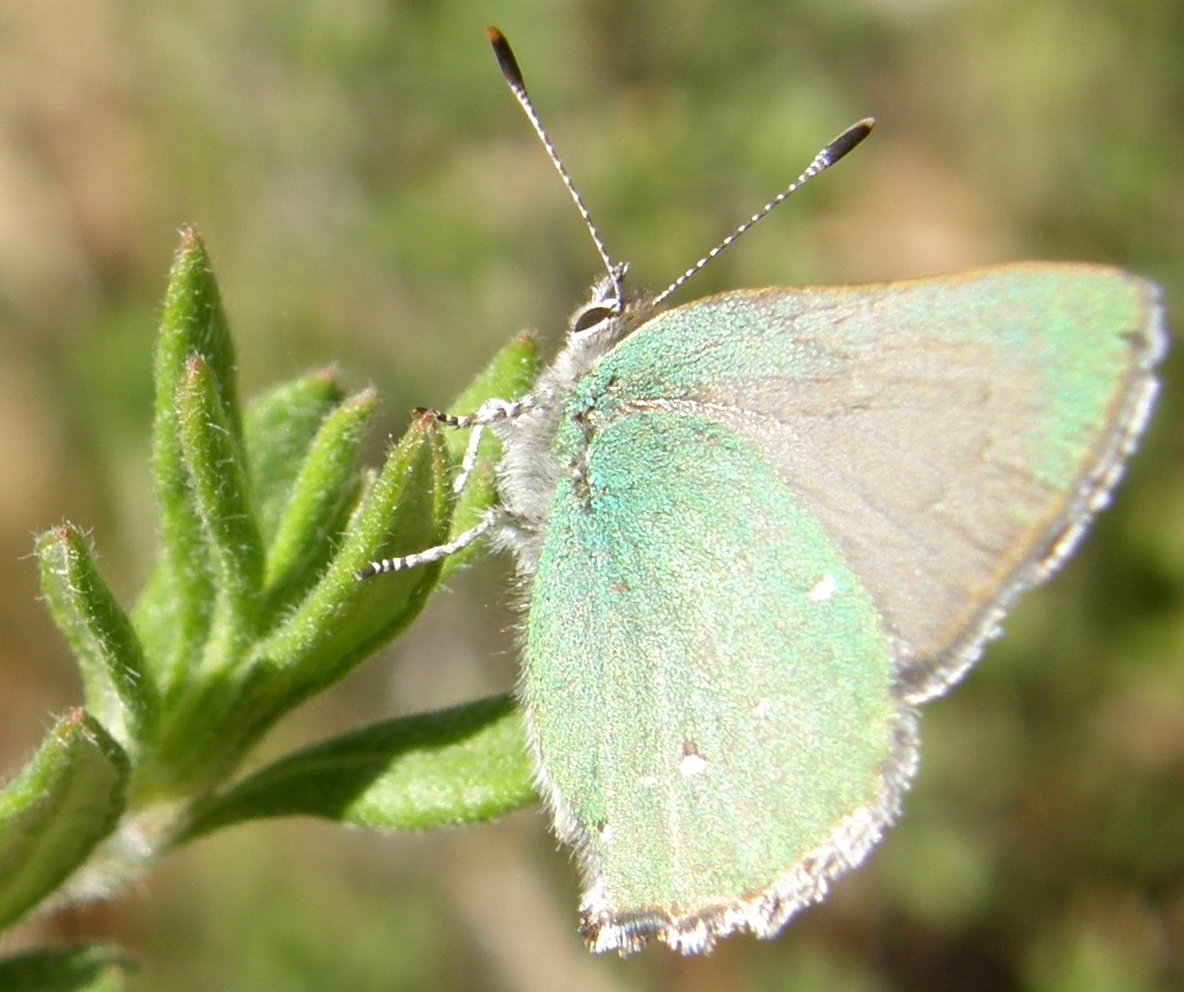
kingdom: Animalia
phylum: Arthropoda
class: Insecta
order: Lepidoptera
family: Lycaenidae
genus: Callophrys
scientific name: Callophrys dumetorum
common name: Bramble hairstreak
